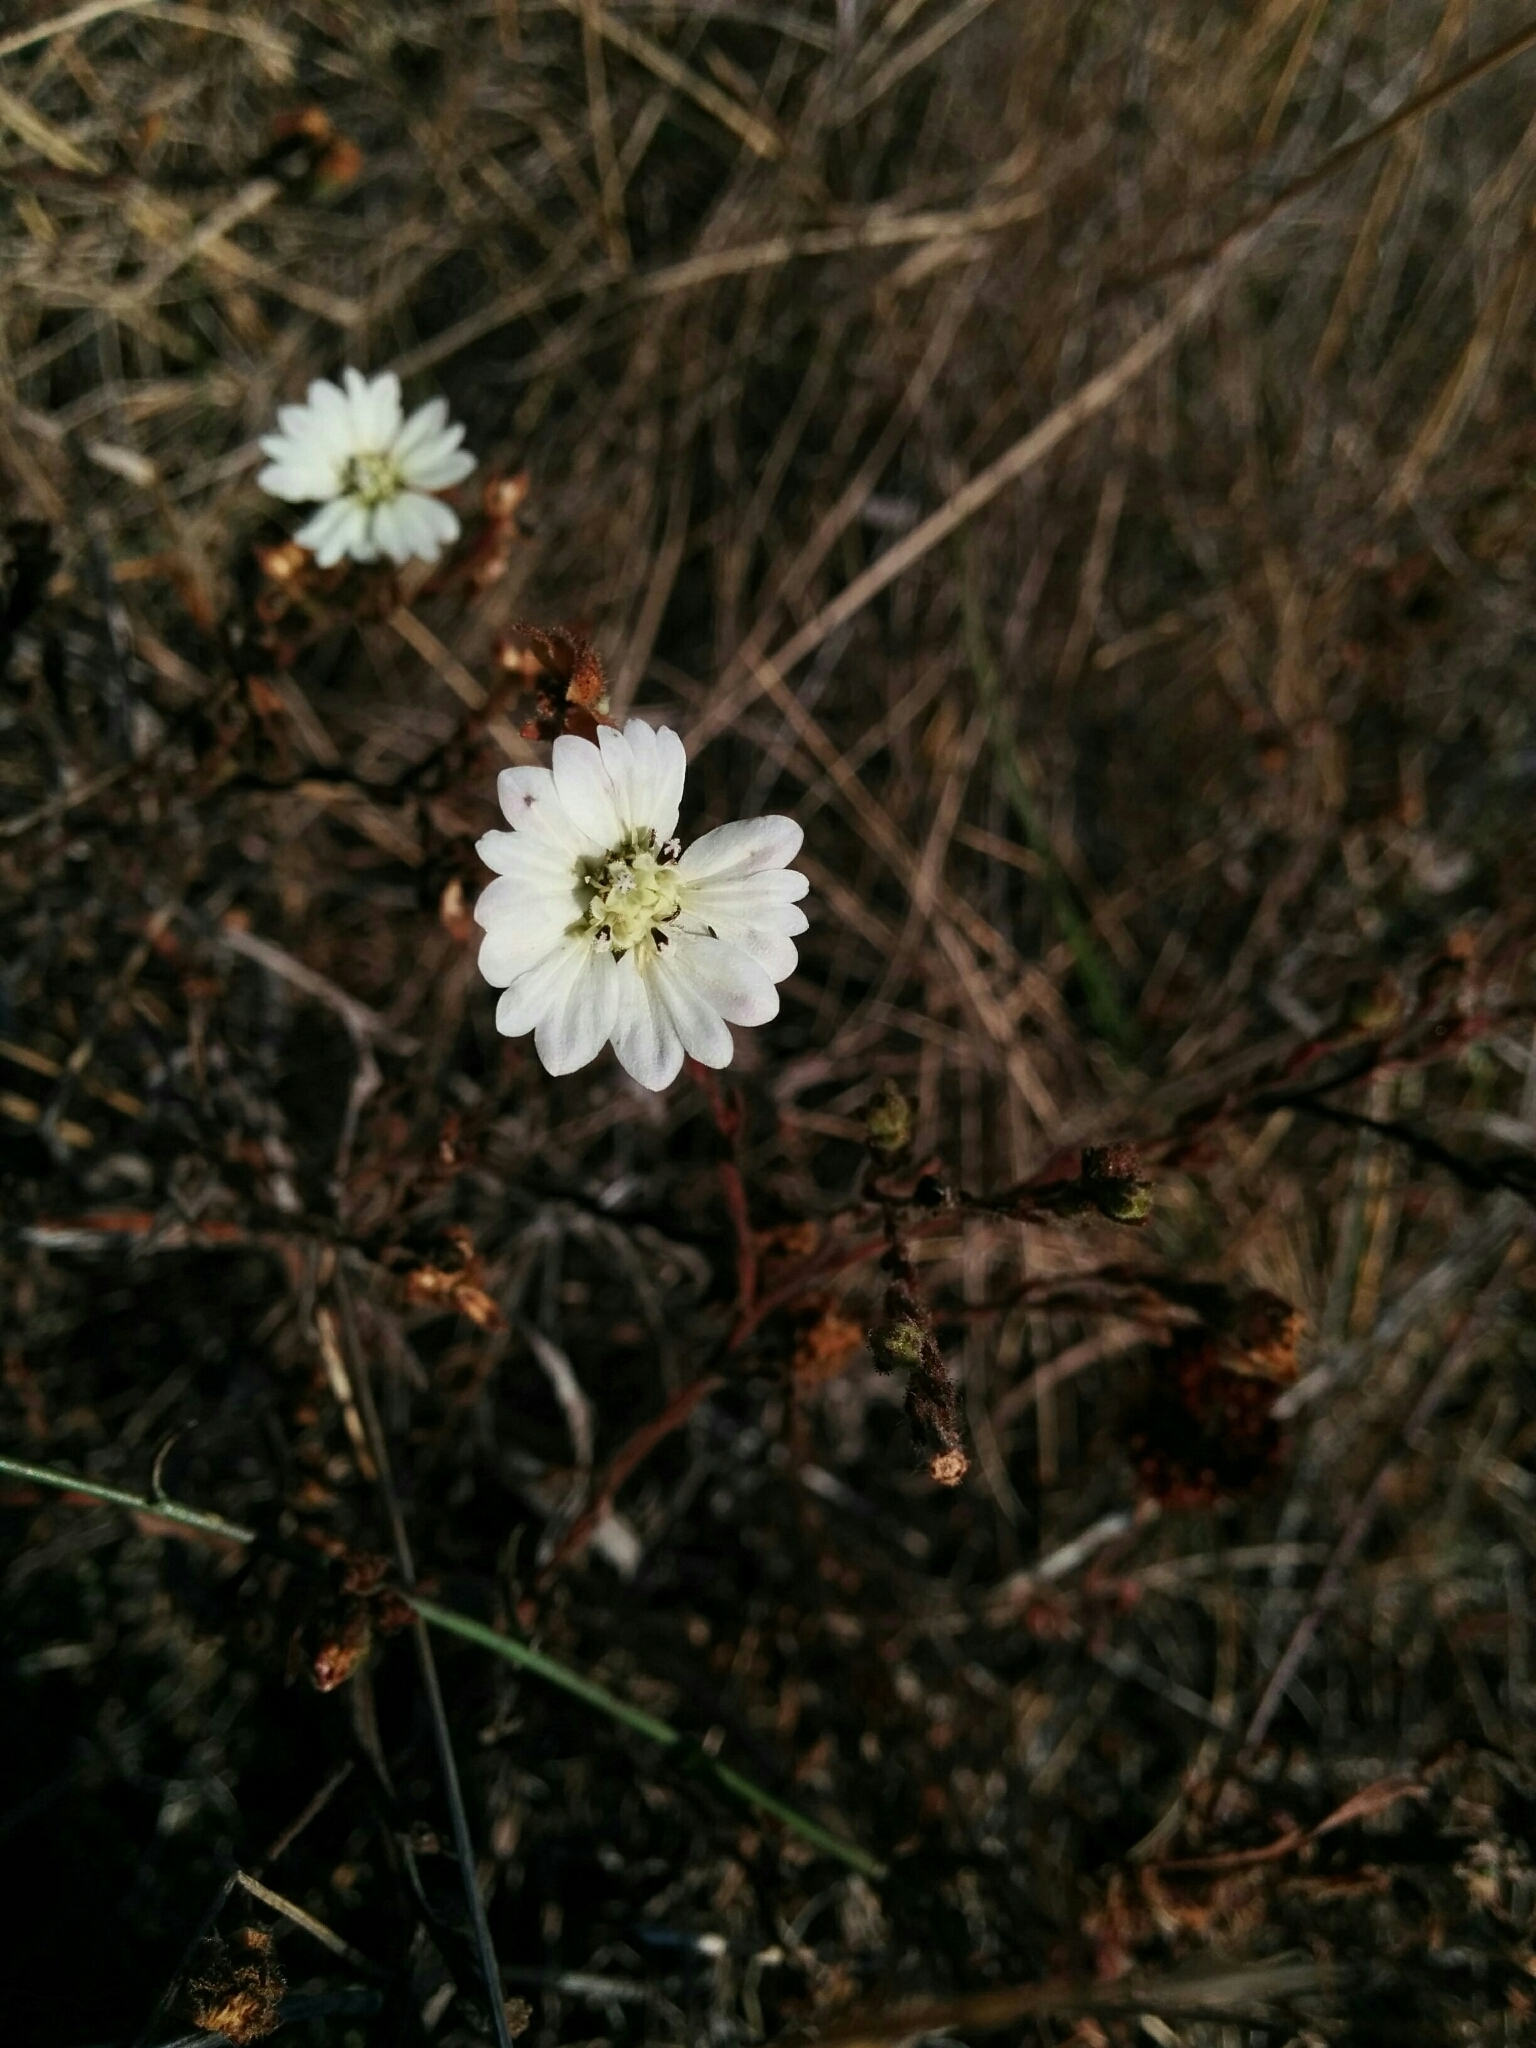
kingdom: Plantae
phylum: Tracheophyta
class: Magnoliopsida
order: Asterales
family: Asteraceae
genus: Hemizonia
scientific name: Hemizonia congesta
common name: Hayfield tarweed
